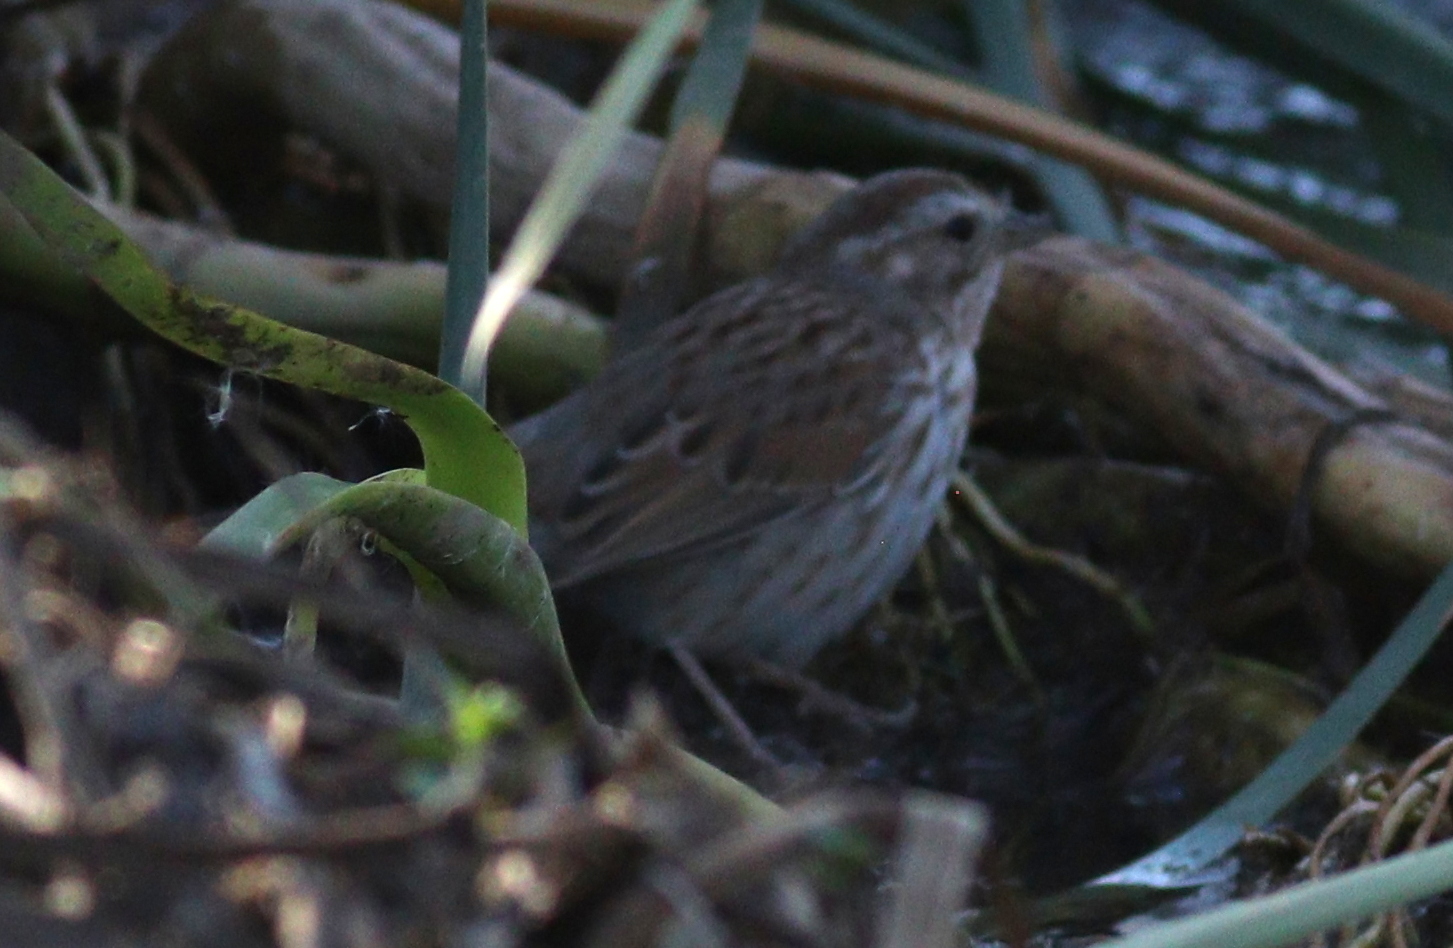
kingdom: Animalia
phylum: Chordata
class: Aves
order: Passeriformes
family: Passerellidae
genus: Melospiza
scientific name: Melospiza melodia
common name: Song sparrow
